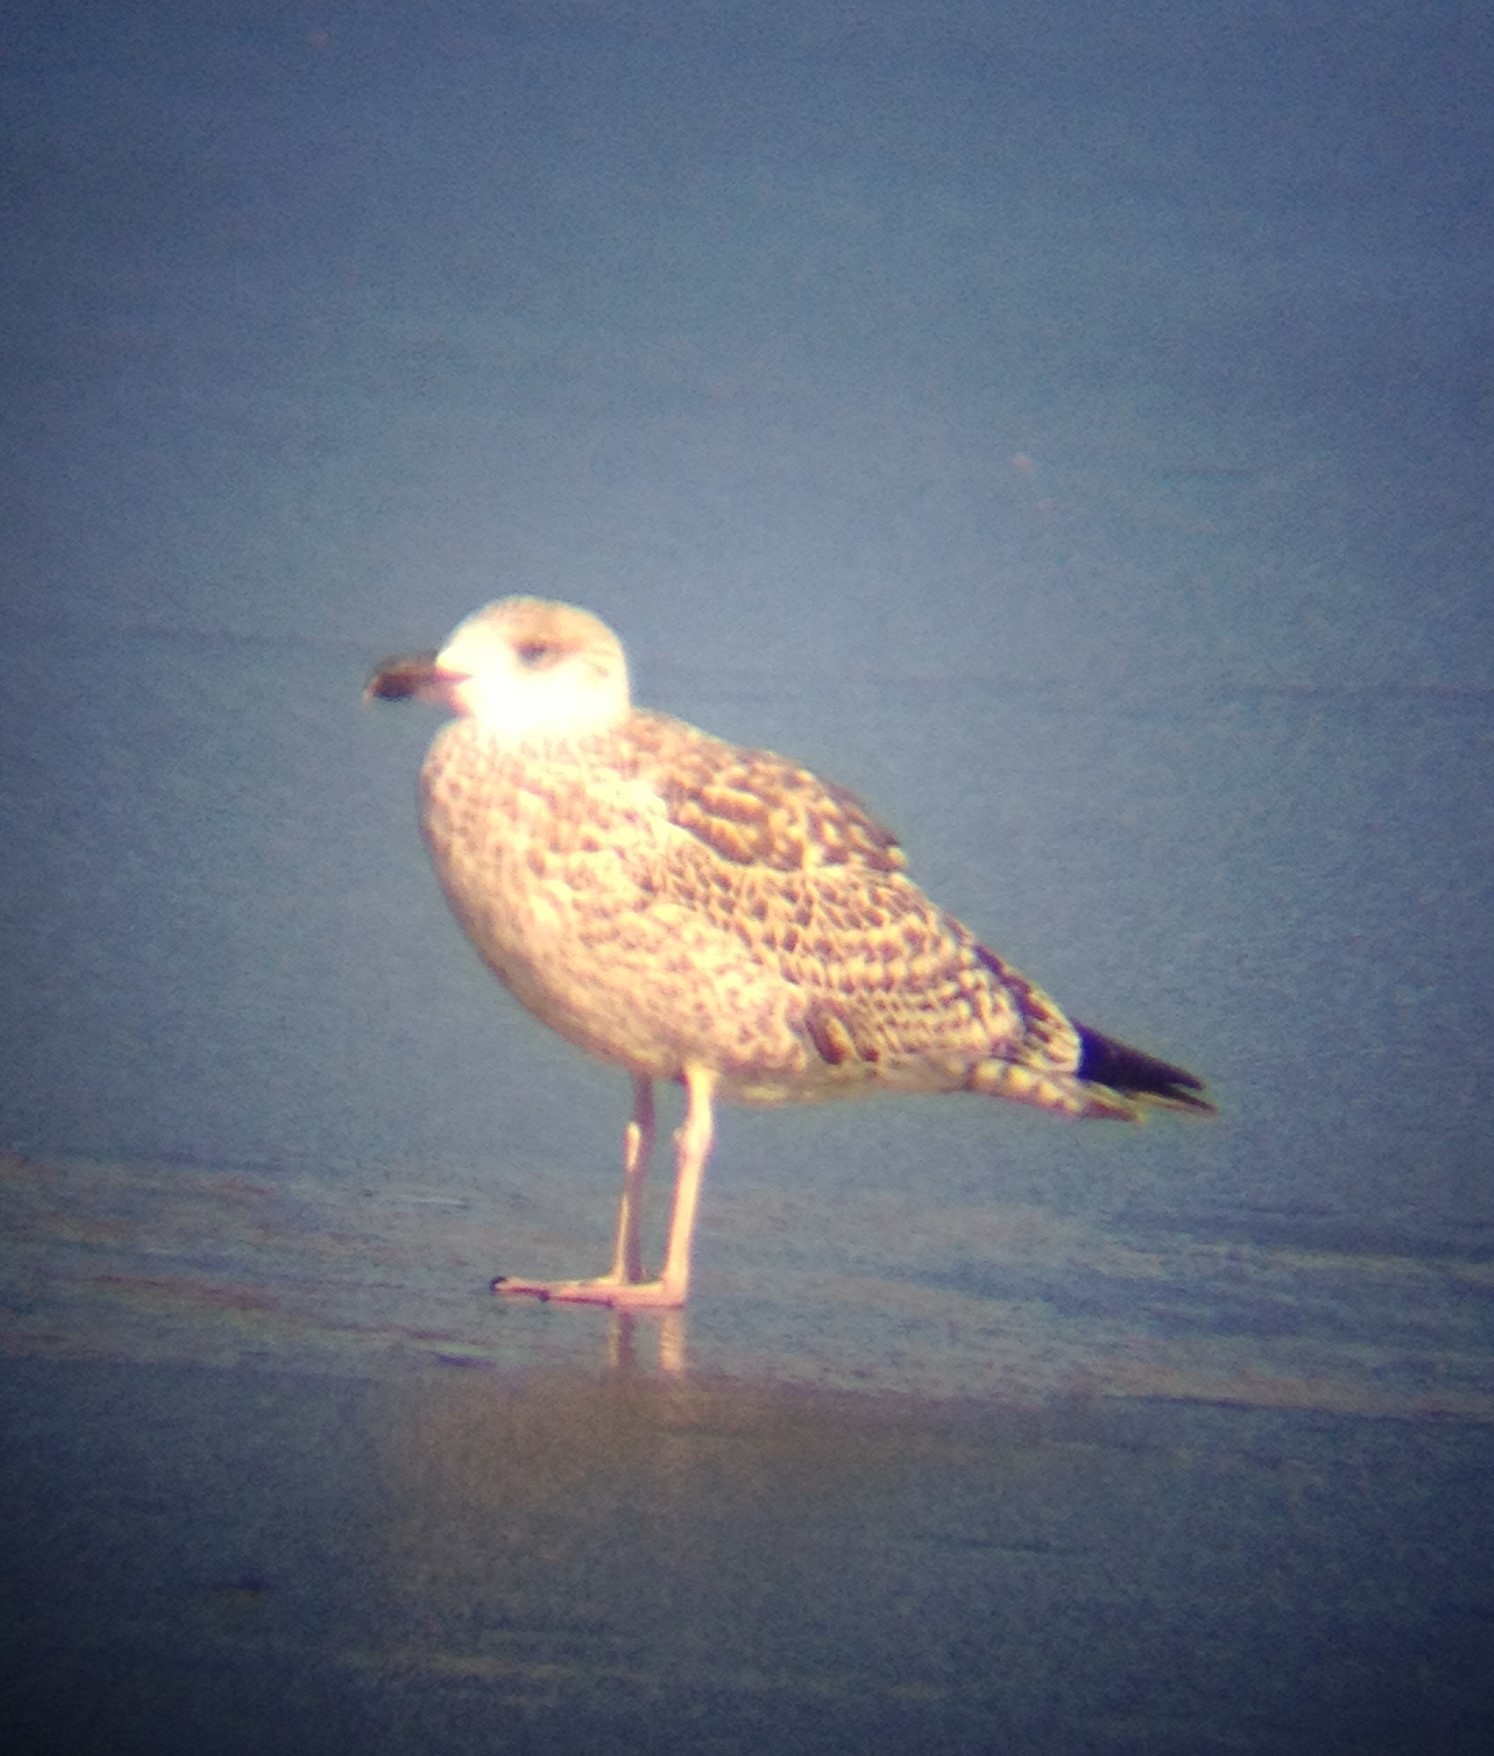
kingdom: Animalia
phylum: Chordata
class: Aves
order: Charadriiformes
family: Laridae
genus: Larus
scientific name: Larus argentatus
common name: Herring gull
